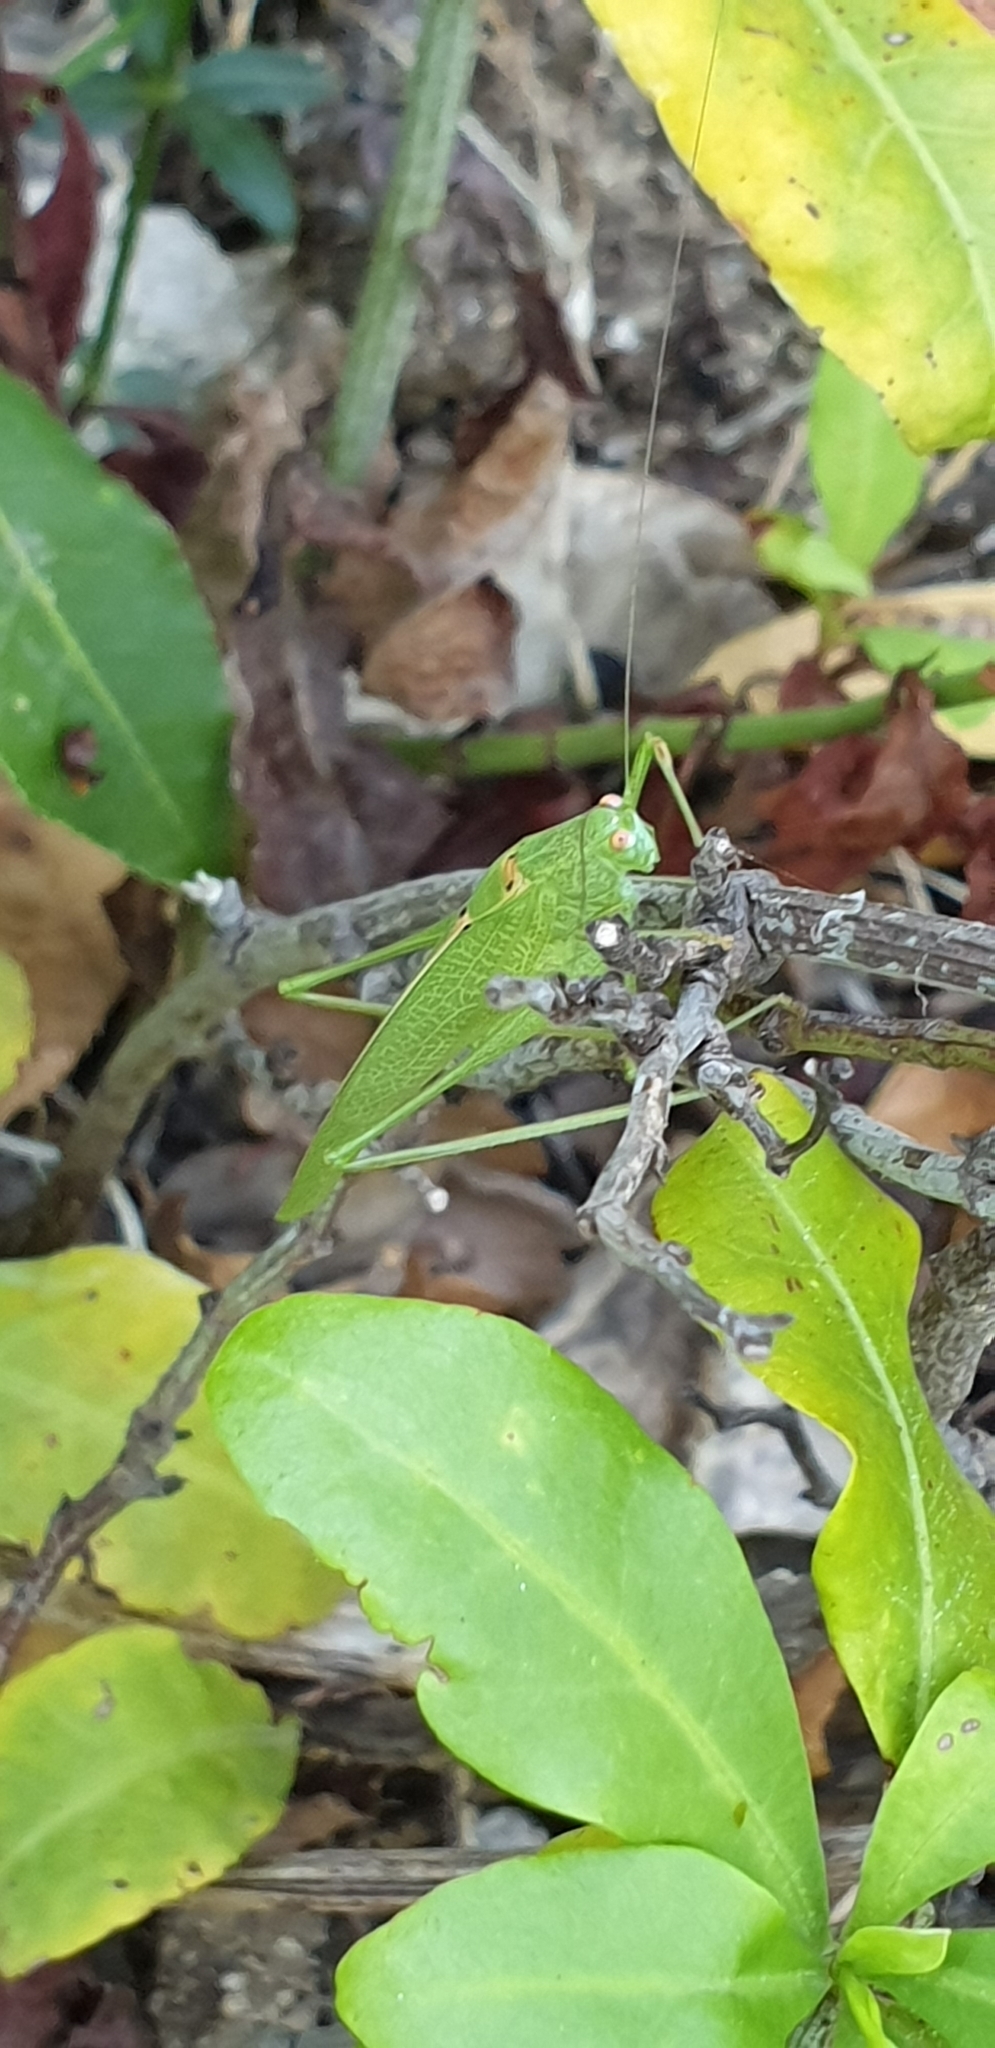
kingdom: Animalia
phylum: Arthropoda
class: Insecta
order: Orthoptera
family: Tettigoniidae
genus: Phaneroptera
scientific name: Phaneroptera nana
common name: Southern sickle bush-cricket
